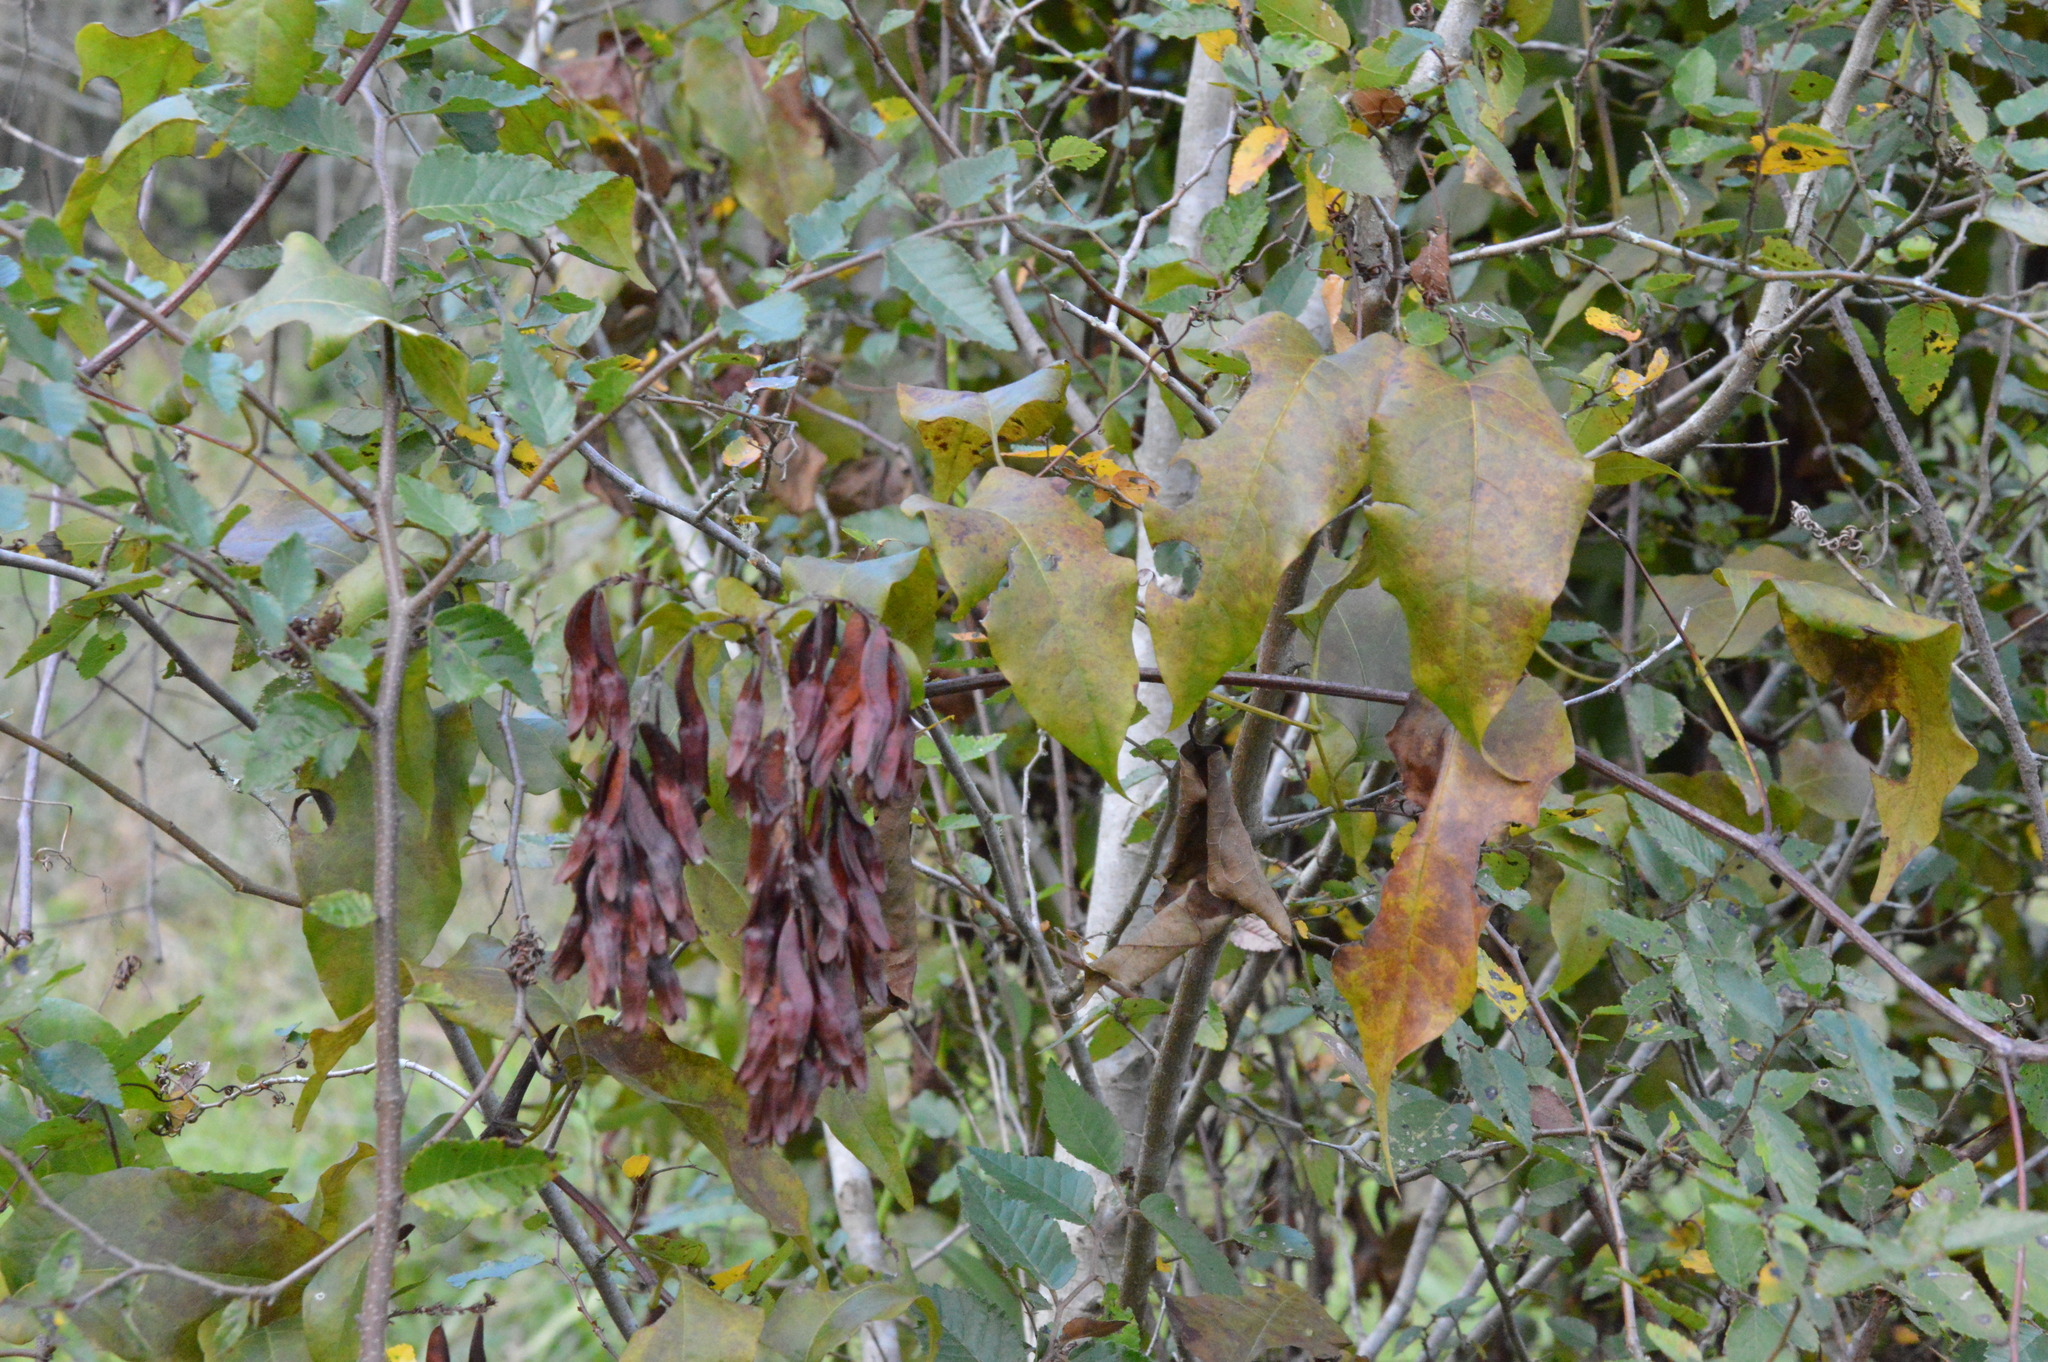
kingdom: Plantae
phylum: Tracheophyta
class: Magnoliopsida
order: Caryophyllales
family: Polygonaceae
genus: Brunnichia
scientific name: Brunnichia ovata
